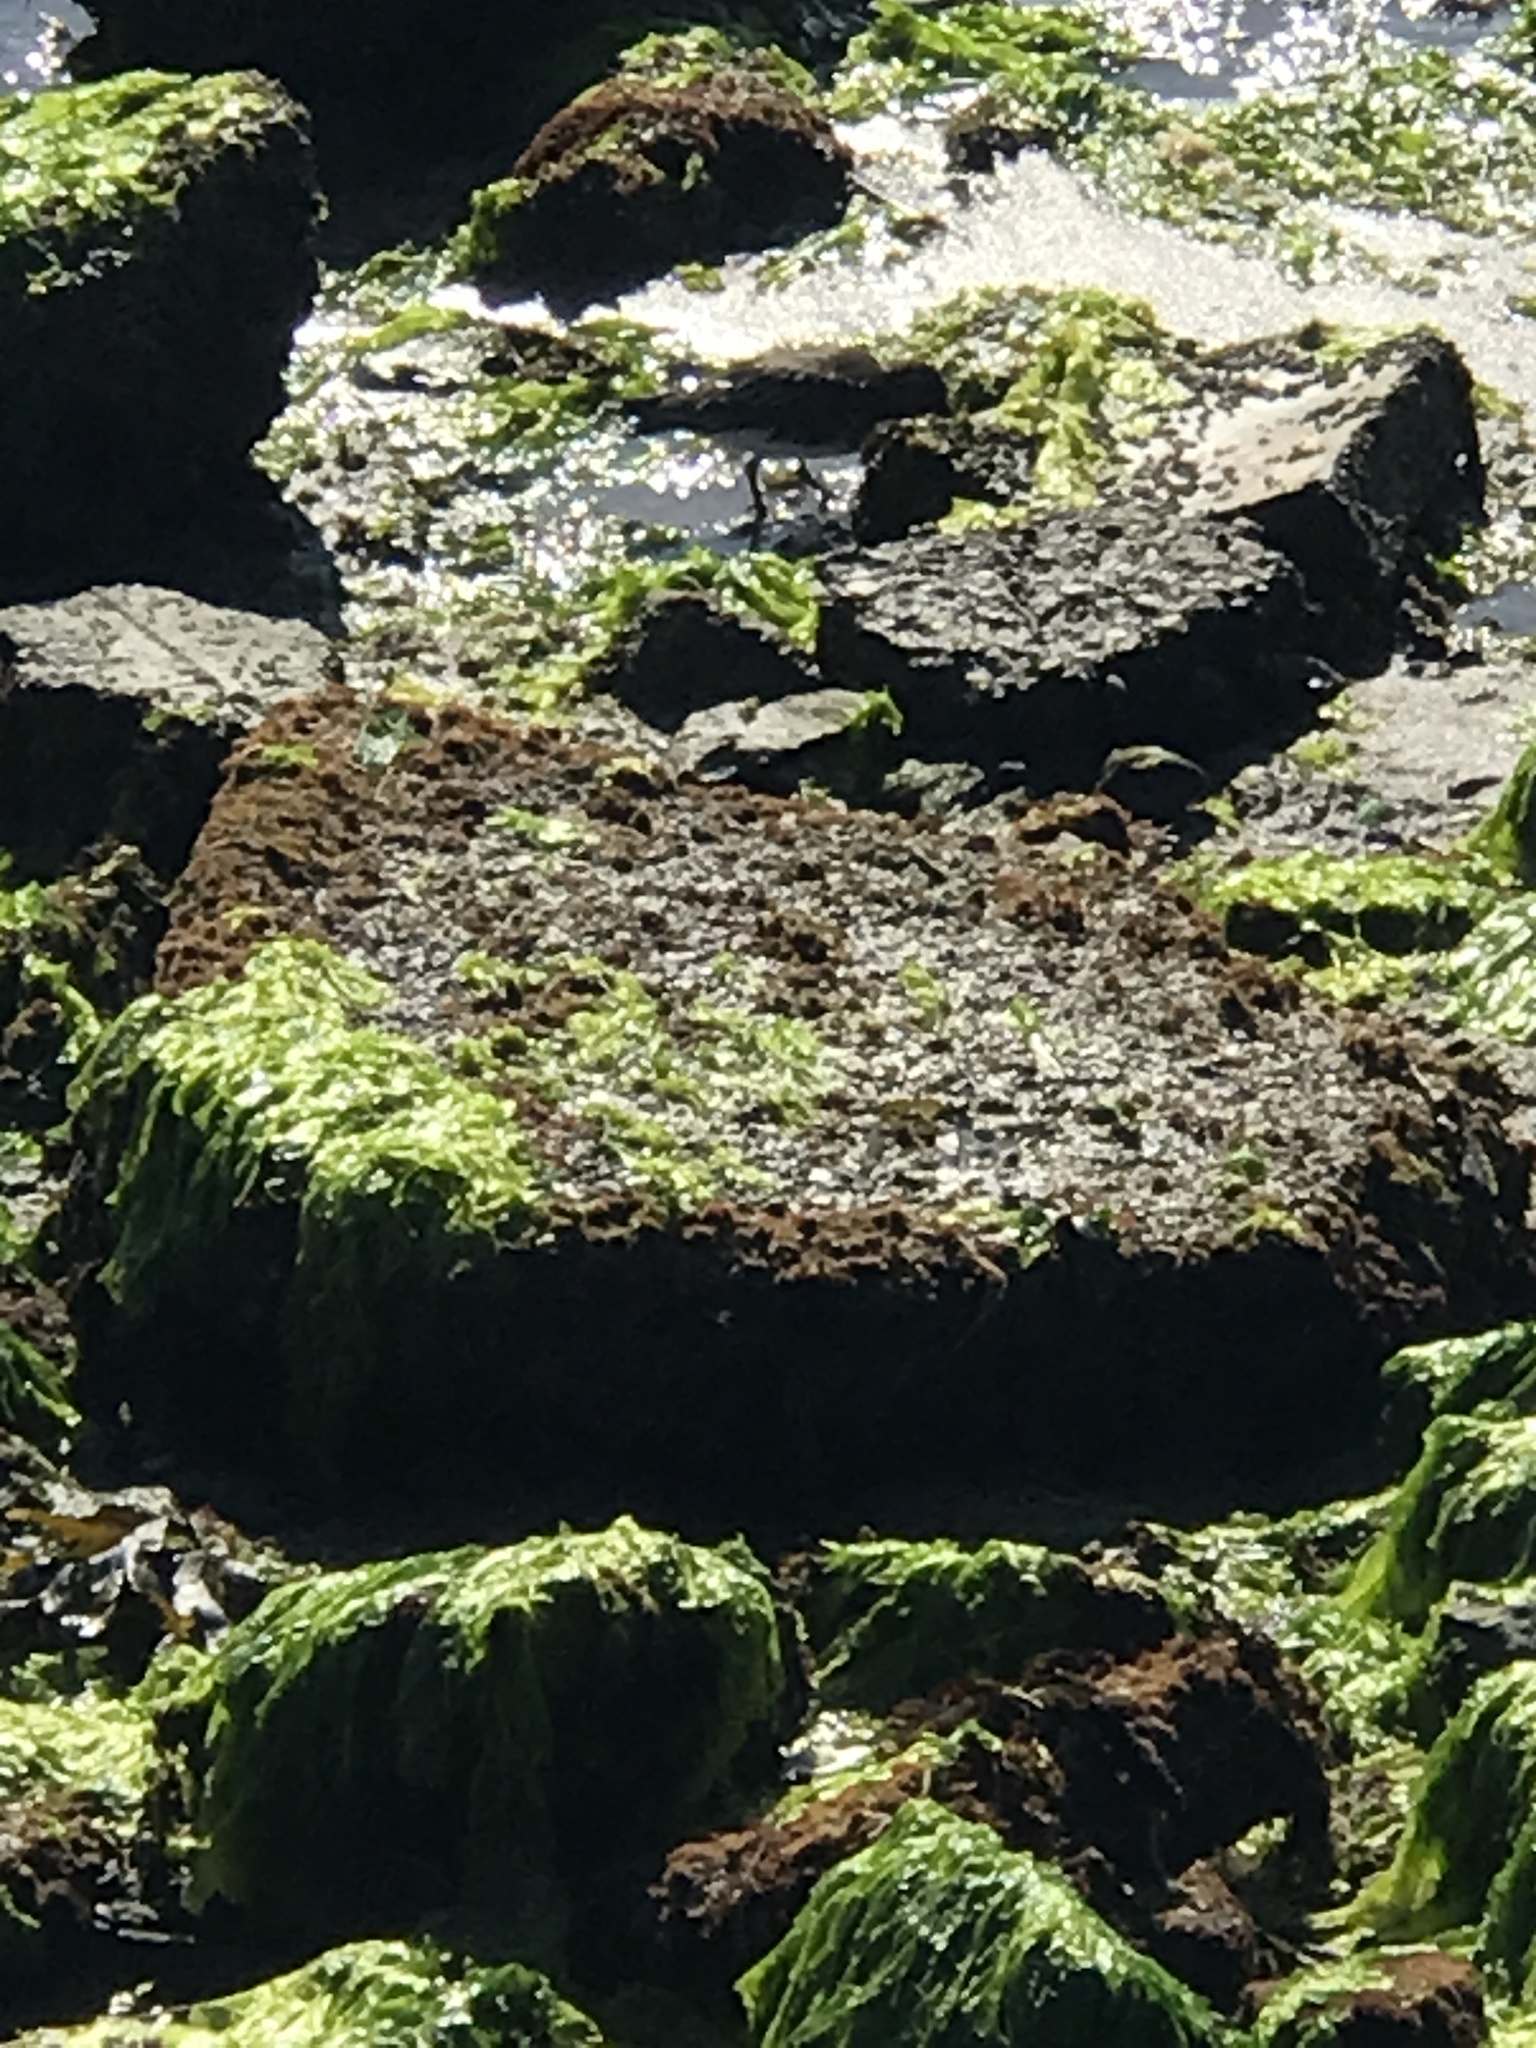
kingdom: Animalia
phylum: Chordata
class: Aves
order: Charadriiformes
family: Scolopacidae
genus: Arenaria
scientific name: Arenaria melanocephala
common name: Black turnstone
